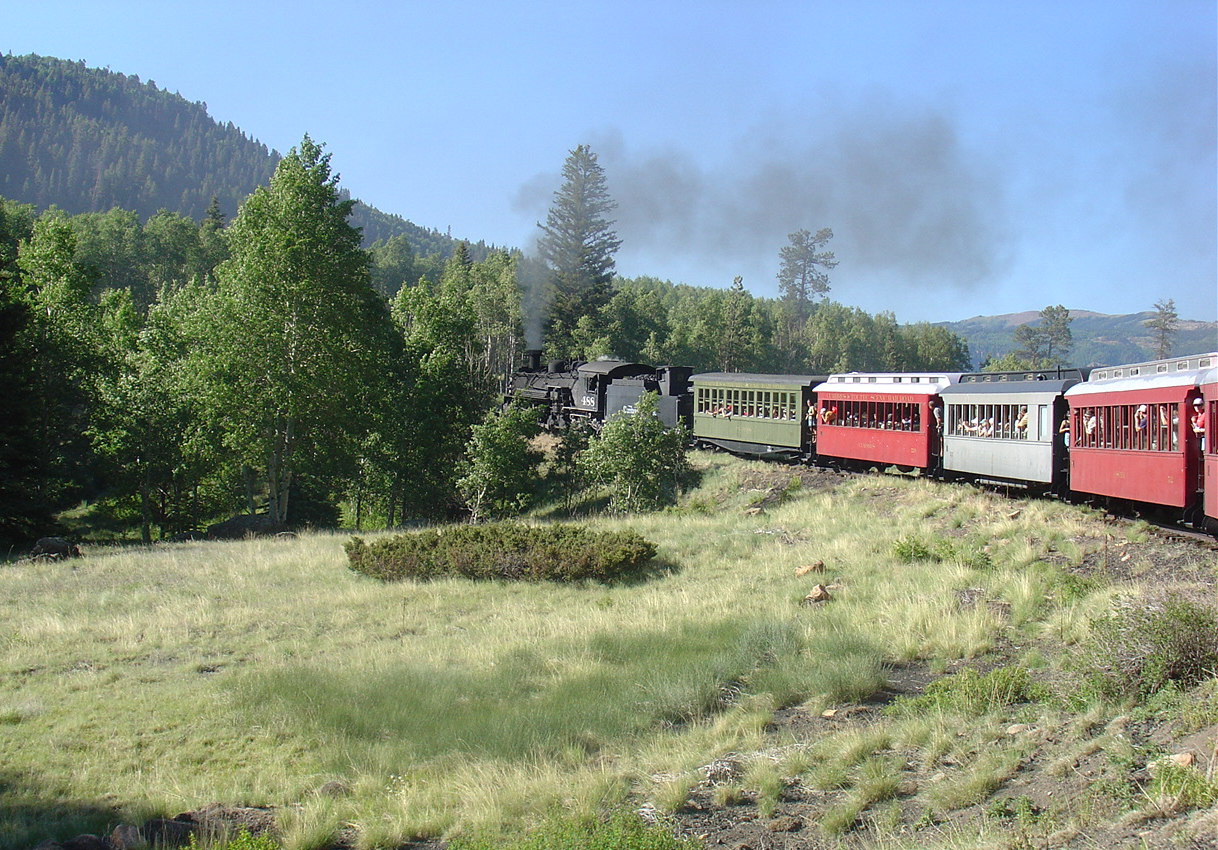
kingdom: Plantae
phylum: Tracheophyta
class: Magnoliopsida
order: Malpighiales
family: Salicaceae
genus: Populus
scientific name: Populus tremuloides
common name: Quaking aspen
